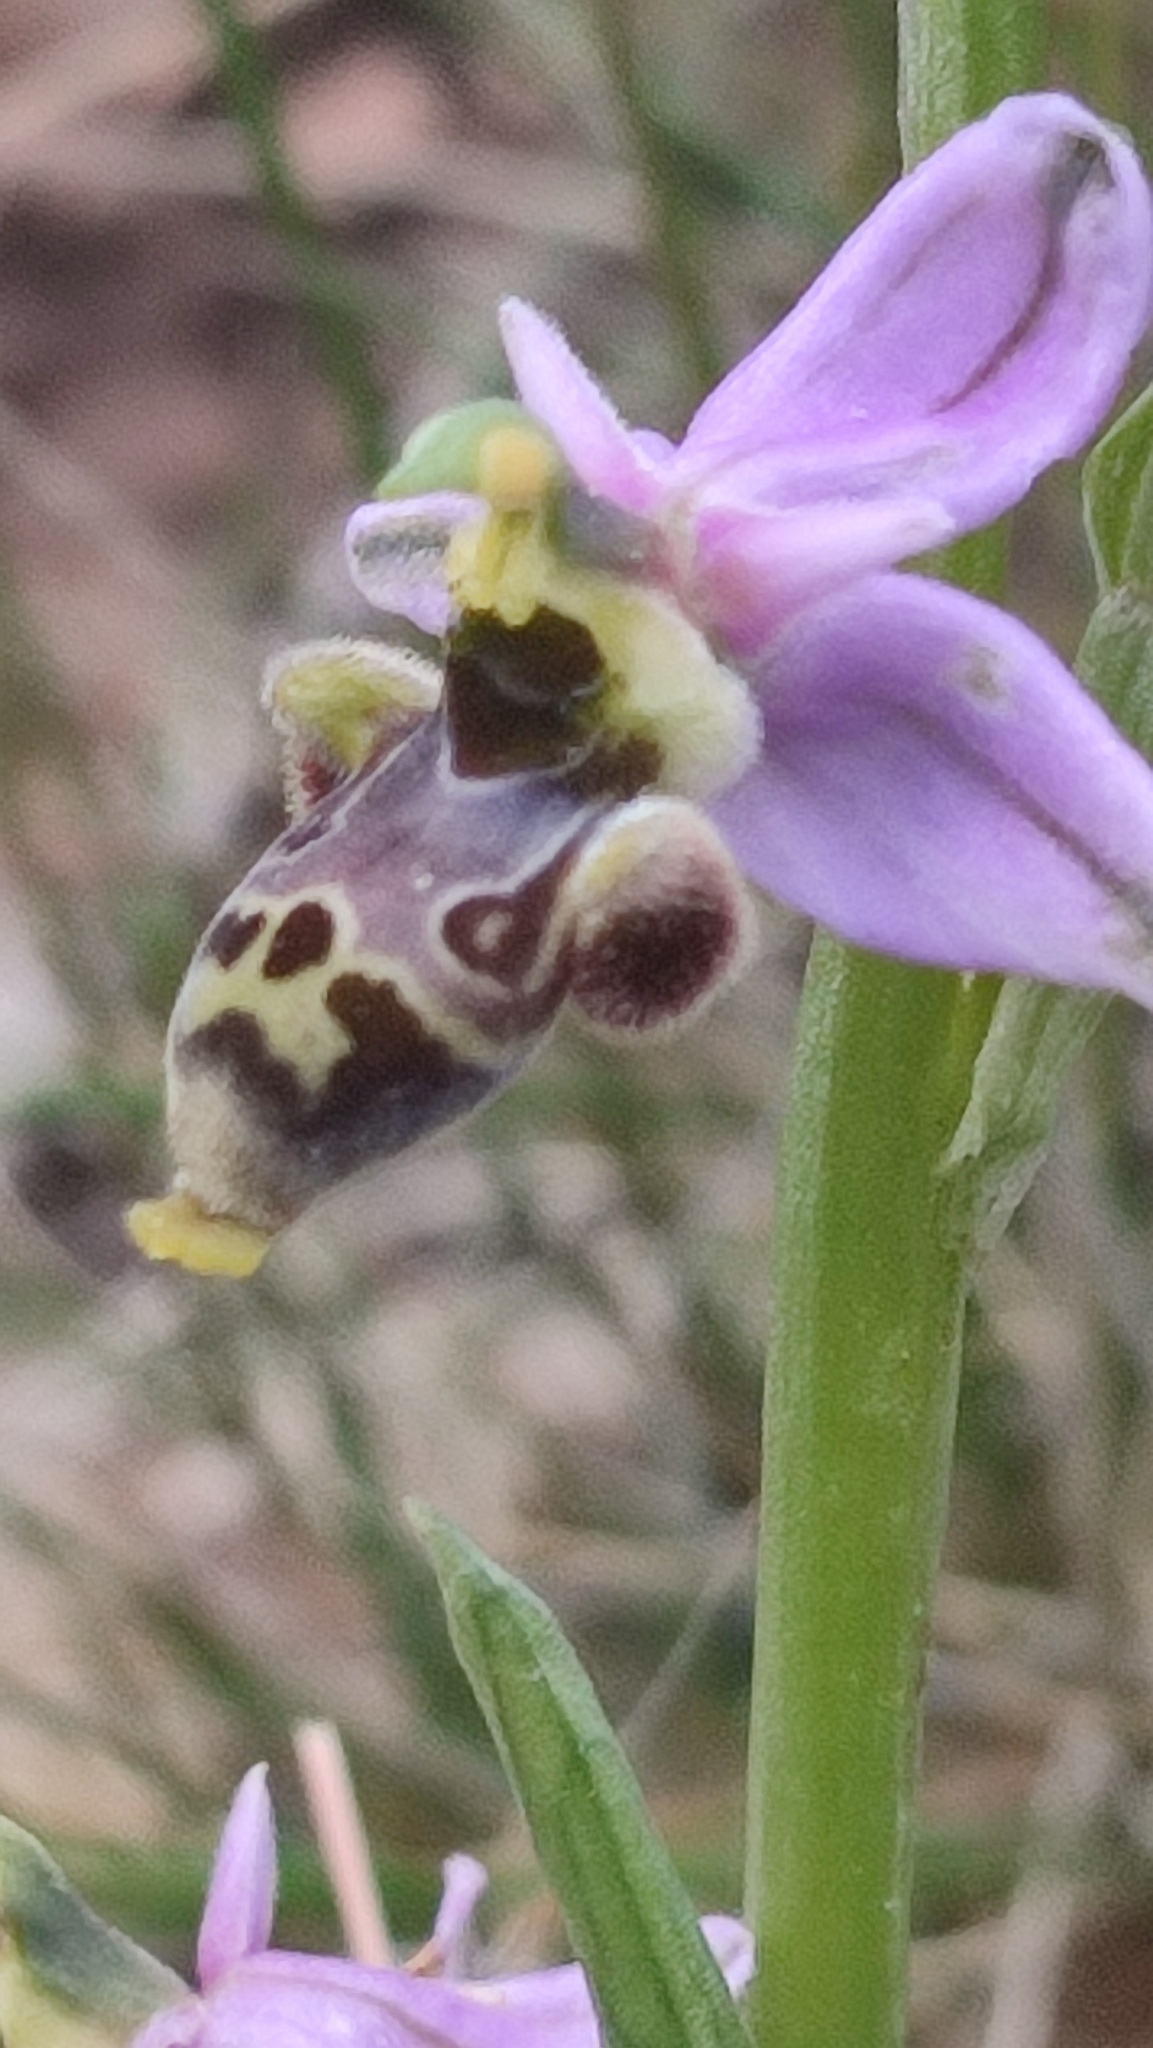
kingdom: Plantae
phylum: Tracheophyta
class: Liliopsida
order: Asparagales
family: Orchidaceae
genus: Ophrys
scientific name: Ophrys scolopax
